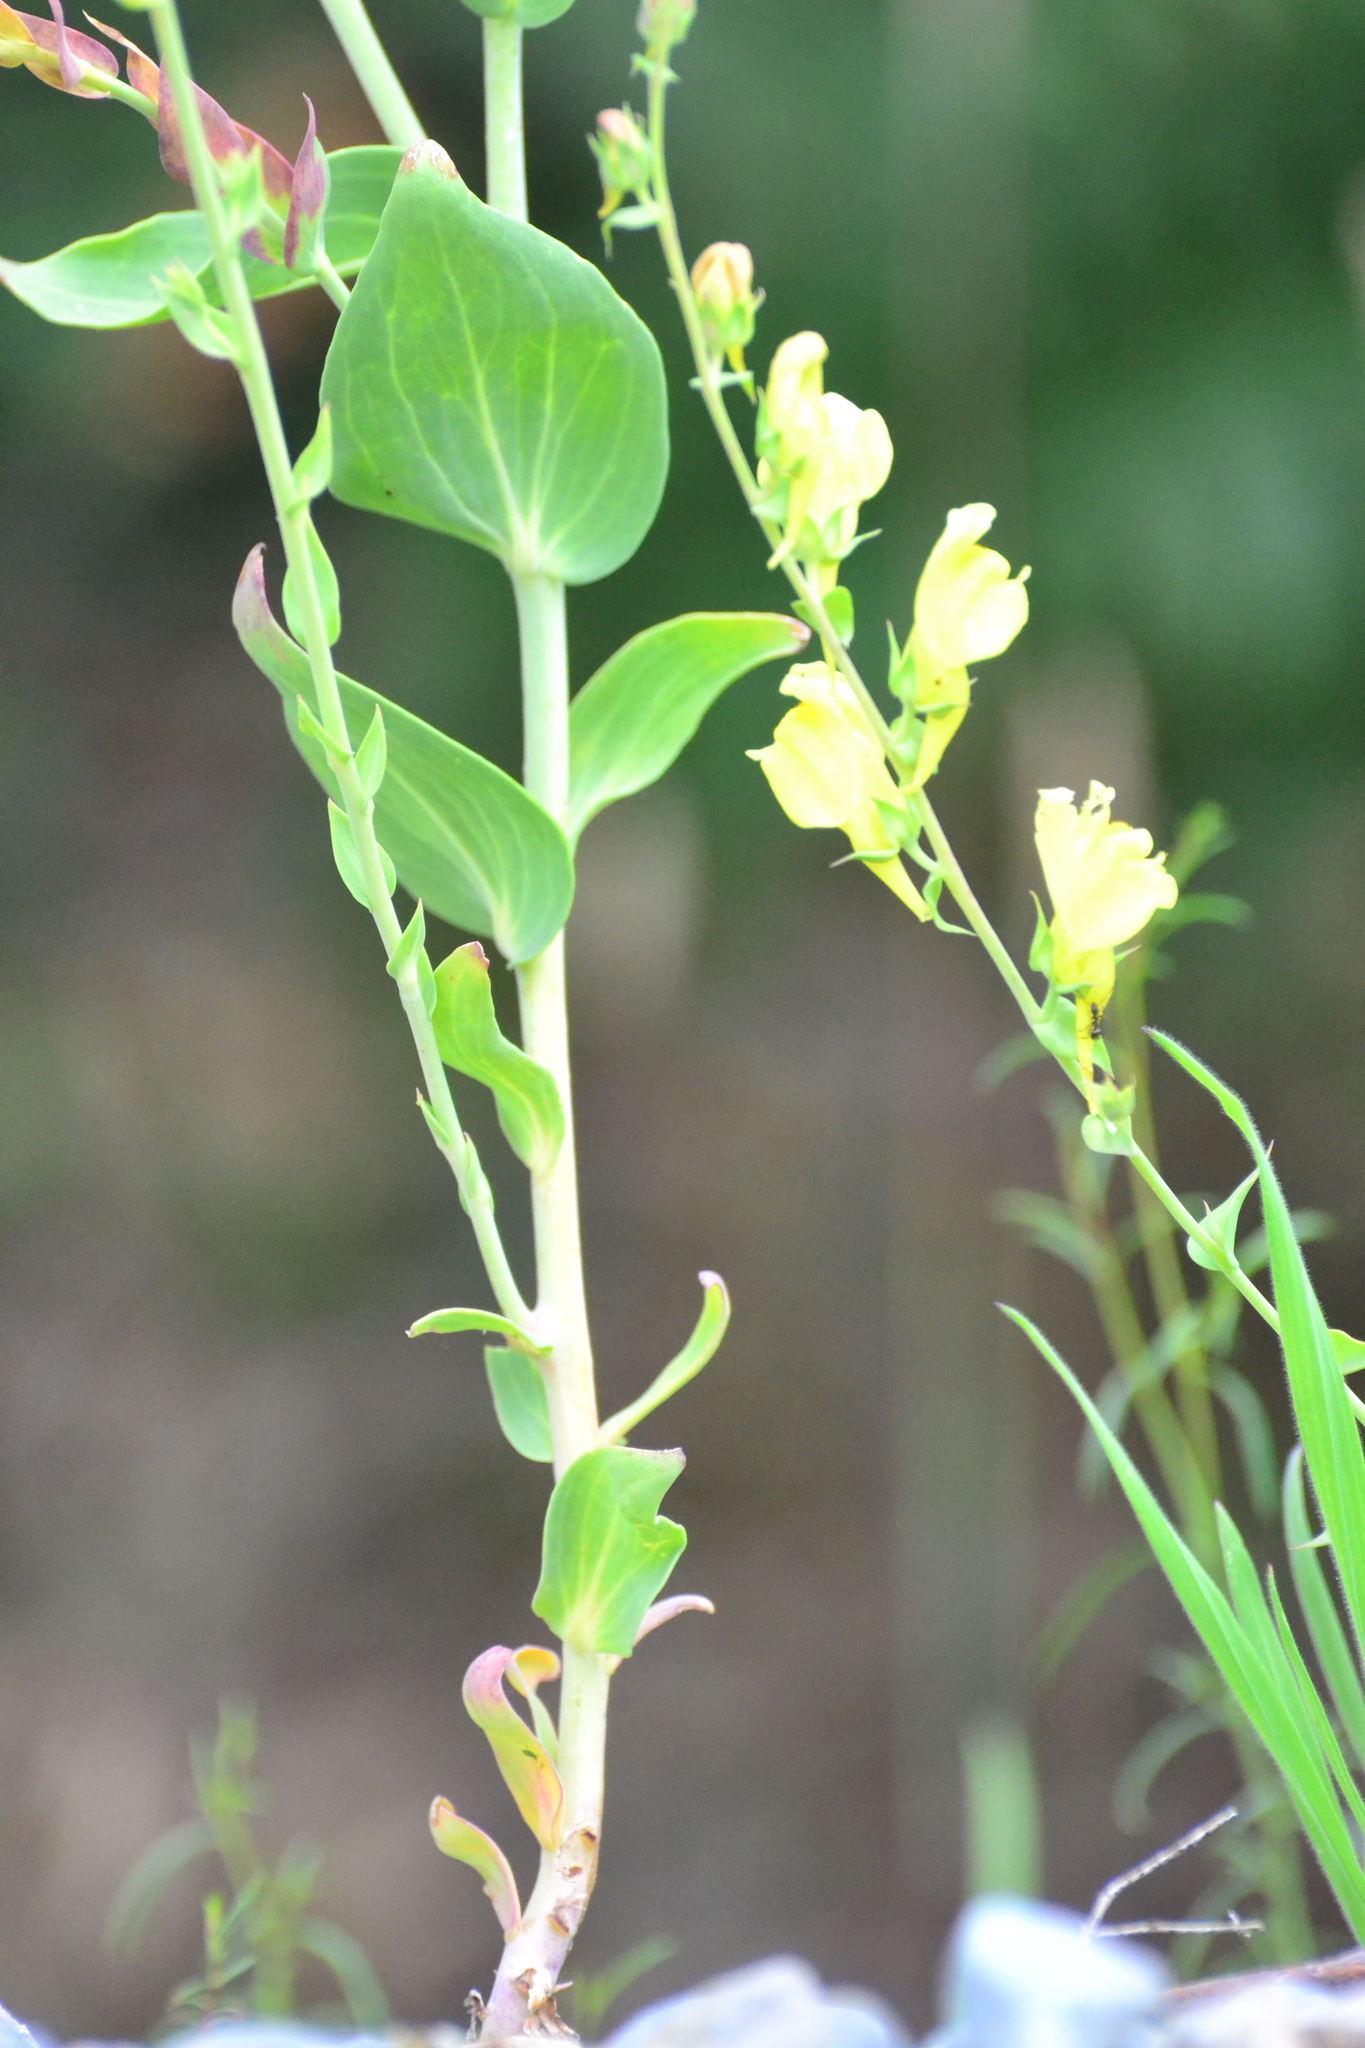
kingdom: Plantae
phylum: Tracheophyta
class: Magnoliopsida
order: Lamiales
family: Plantaginaceae
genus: Linaria
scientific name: Linaria dalmatica
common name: Dalmatian toadflax
